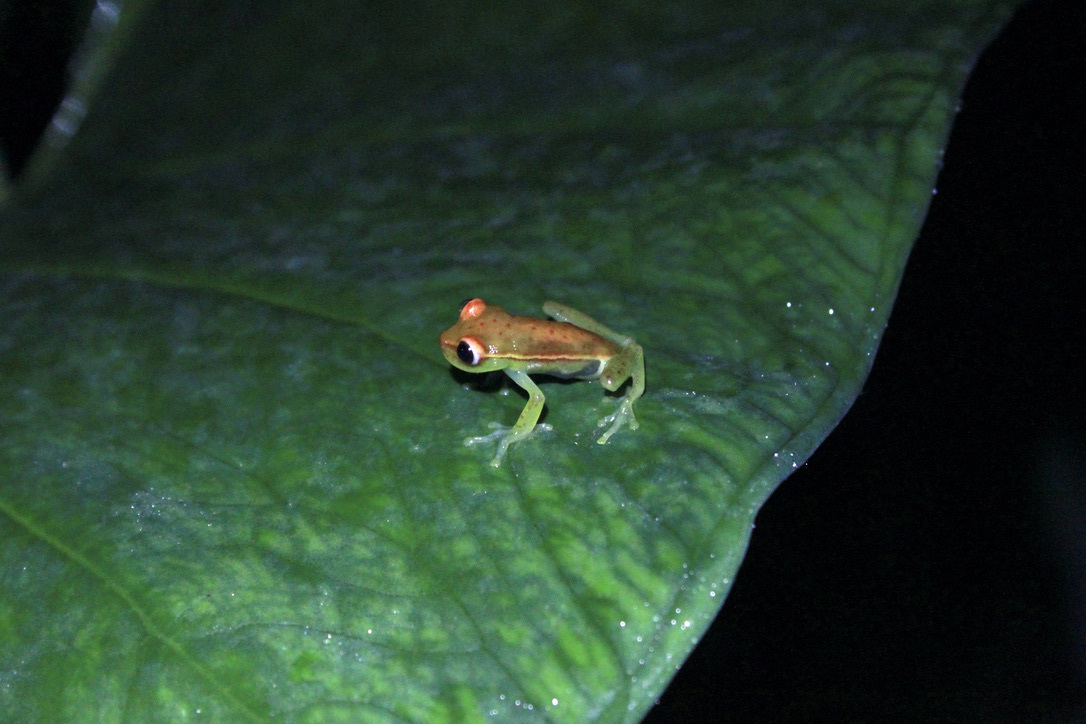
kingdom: Animalia
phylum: Chordata
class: Amphibia
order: Anura
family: Hylidae
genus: Boana
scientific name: Boana punctata
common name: Polka-dot treefrog
